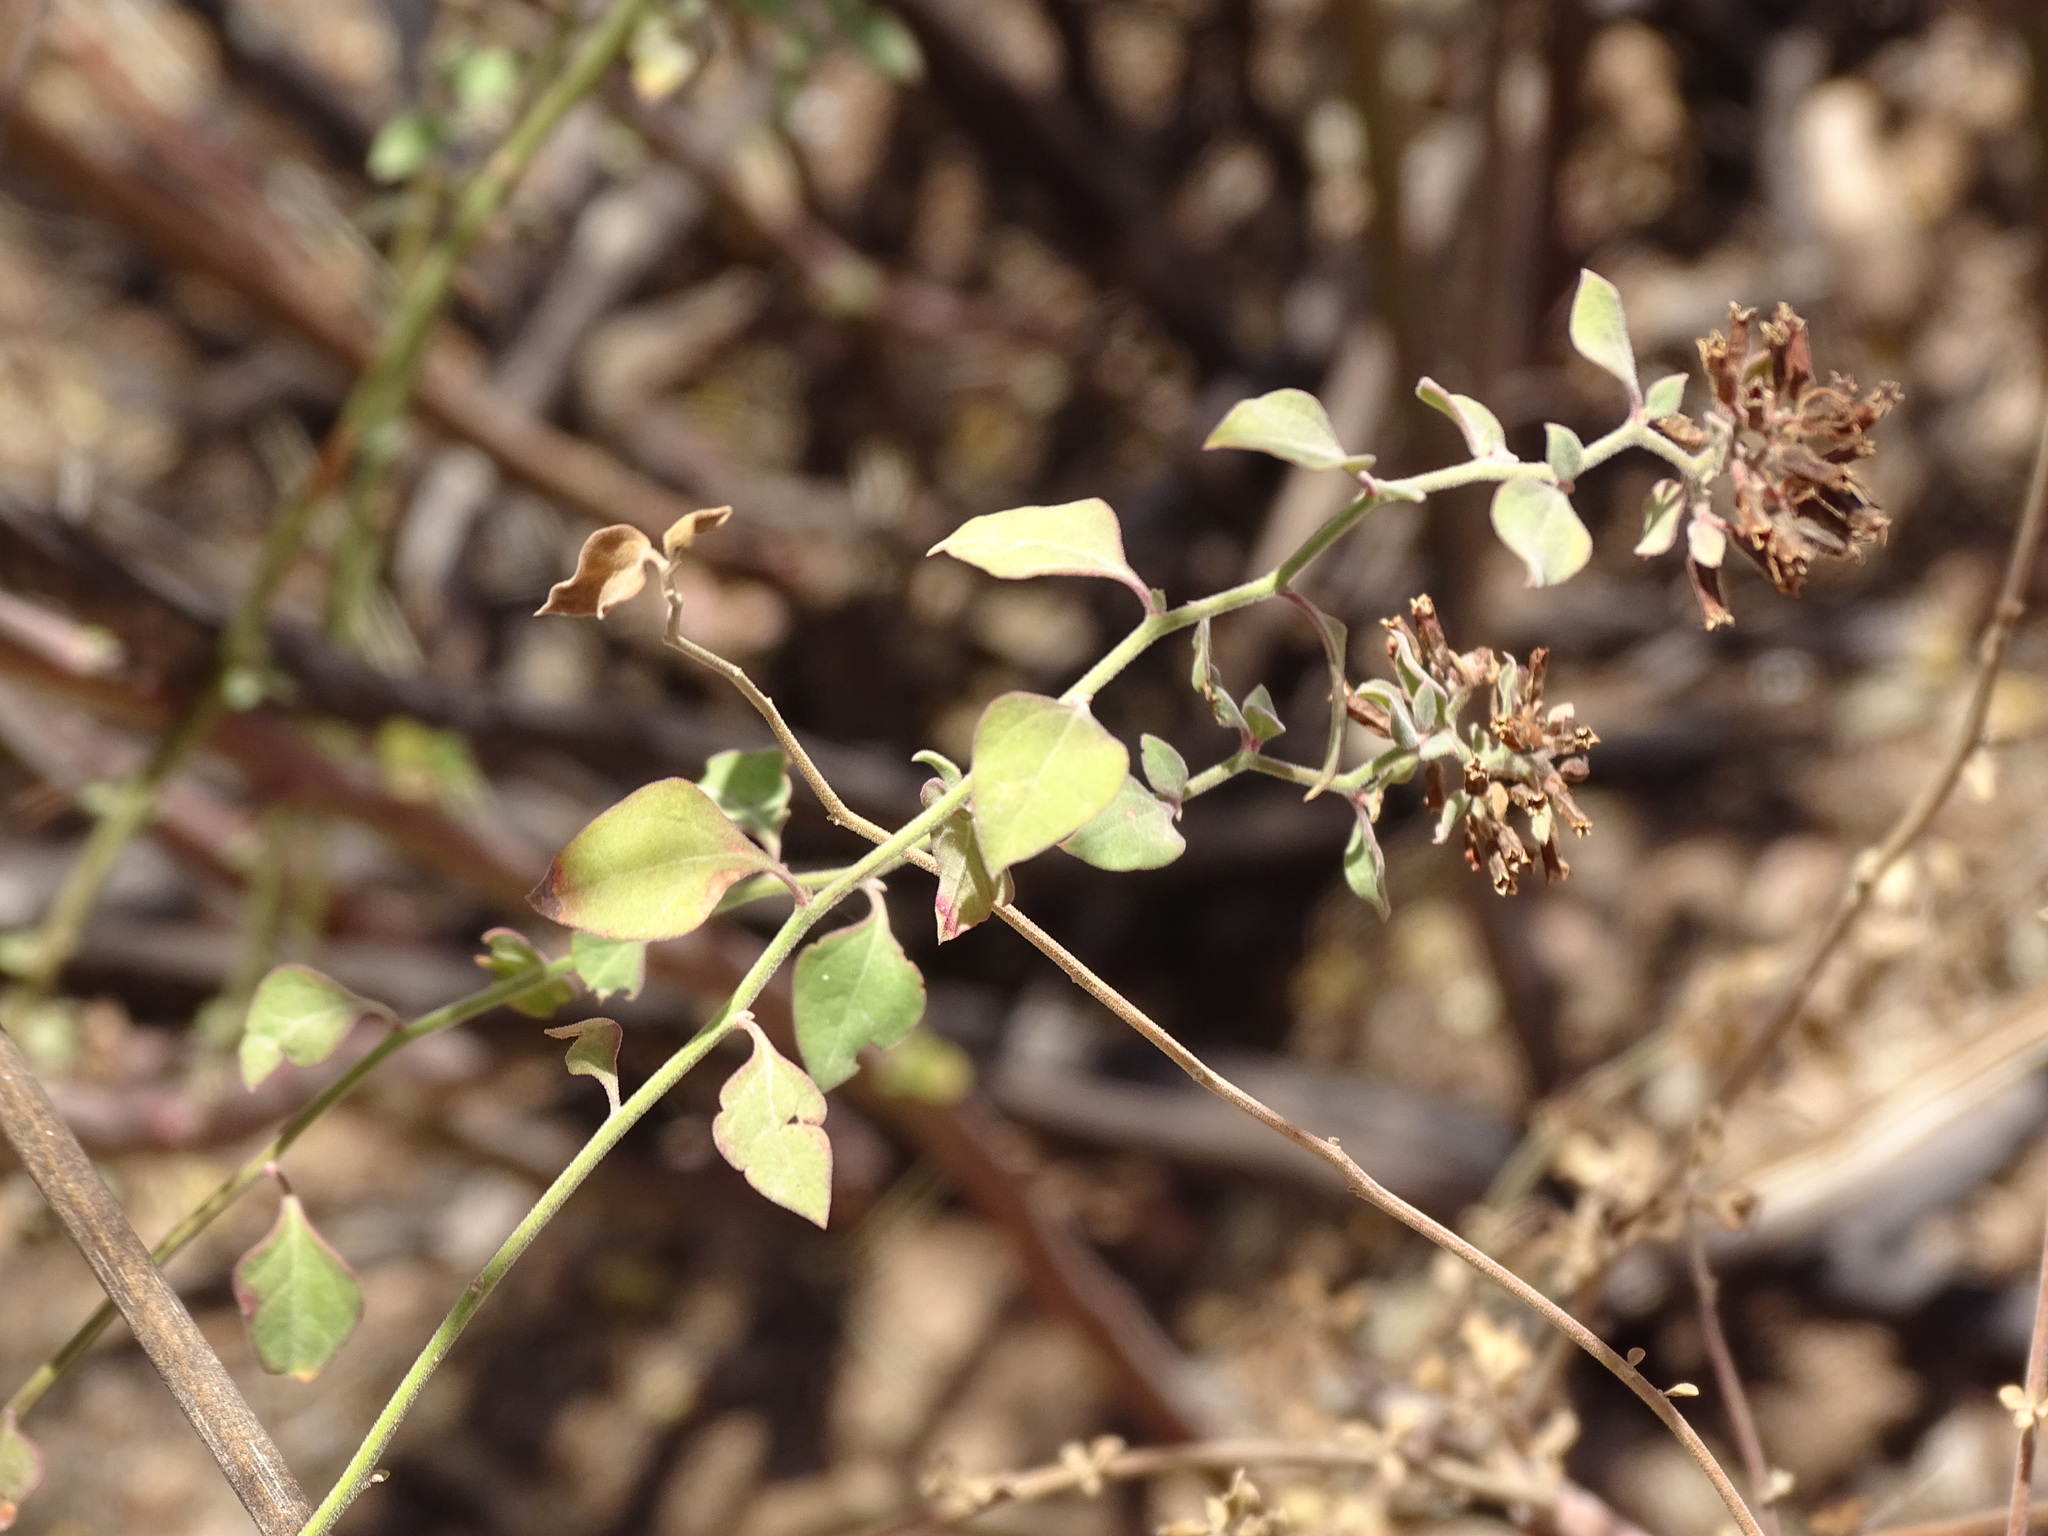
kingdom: Plantae
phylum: Tracheophyta
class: Magnoliopsida
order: Caryophyllales
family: Nyctaginaceae
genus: Salpianthus
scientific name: Salpianthus arenarius
